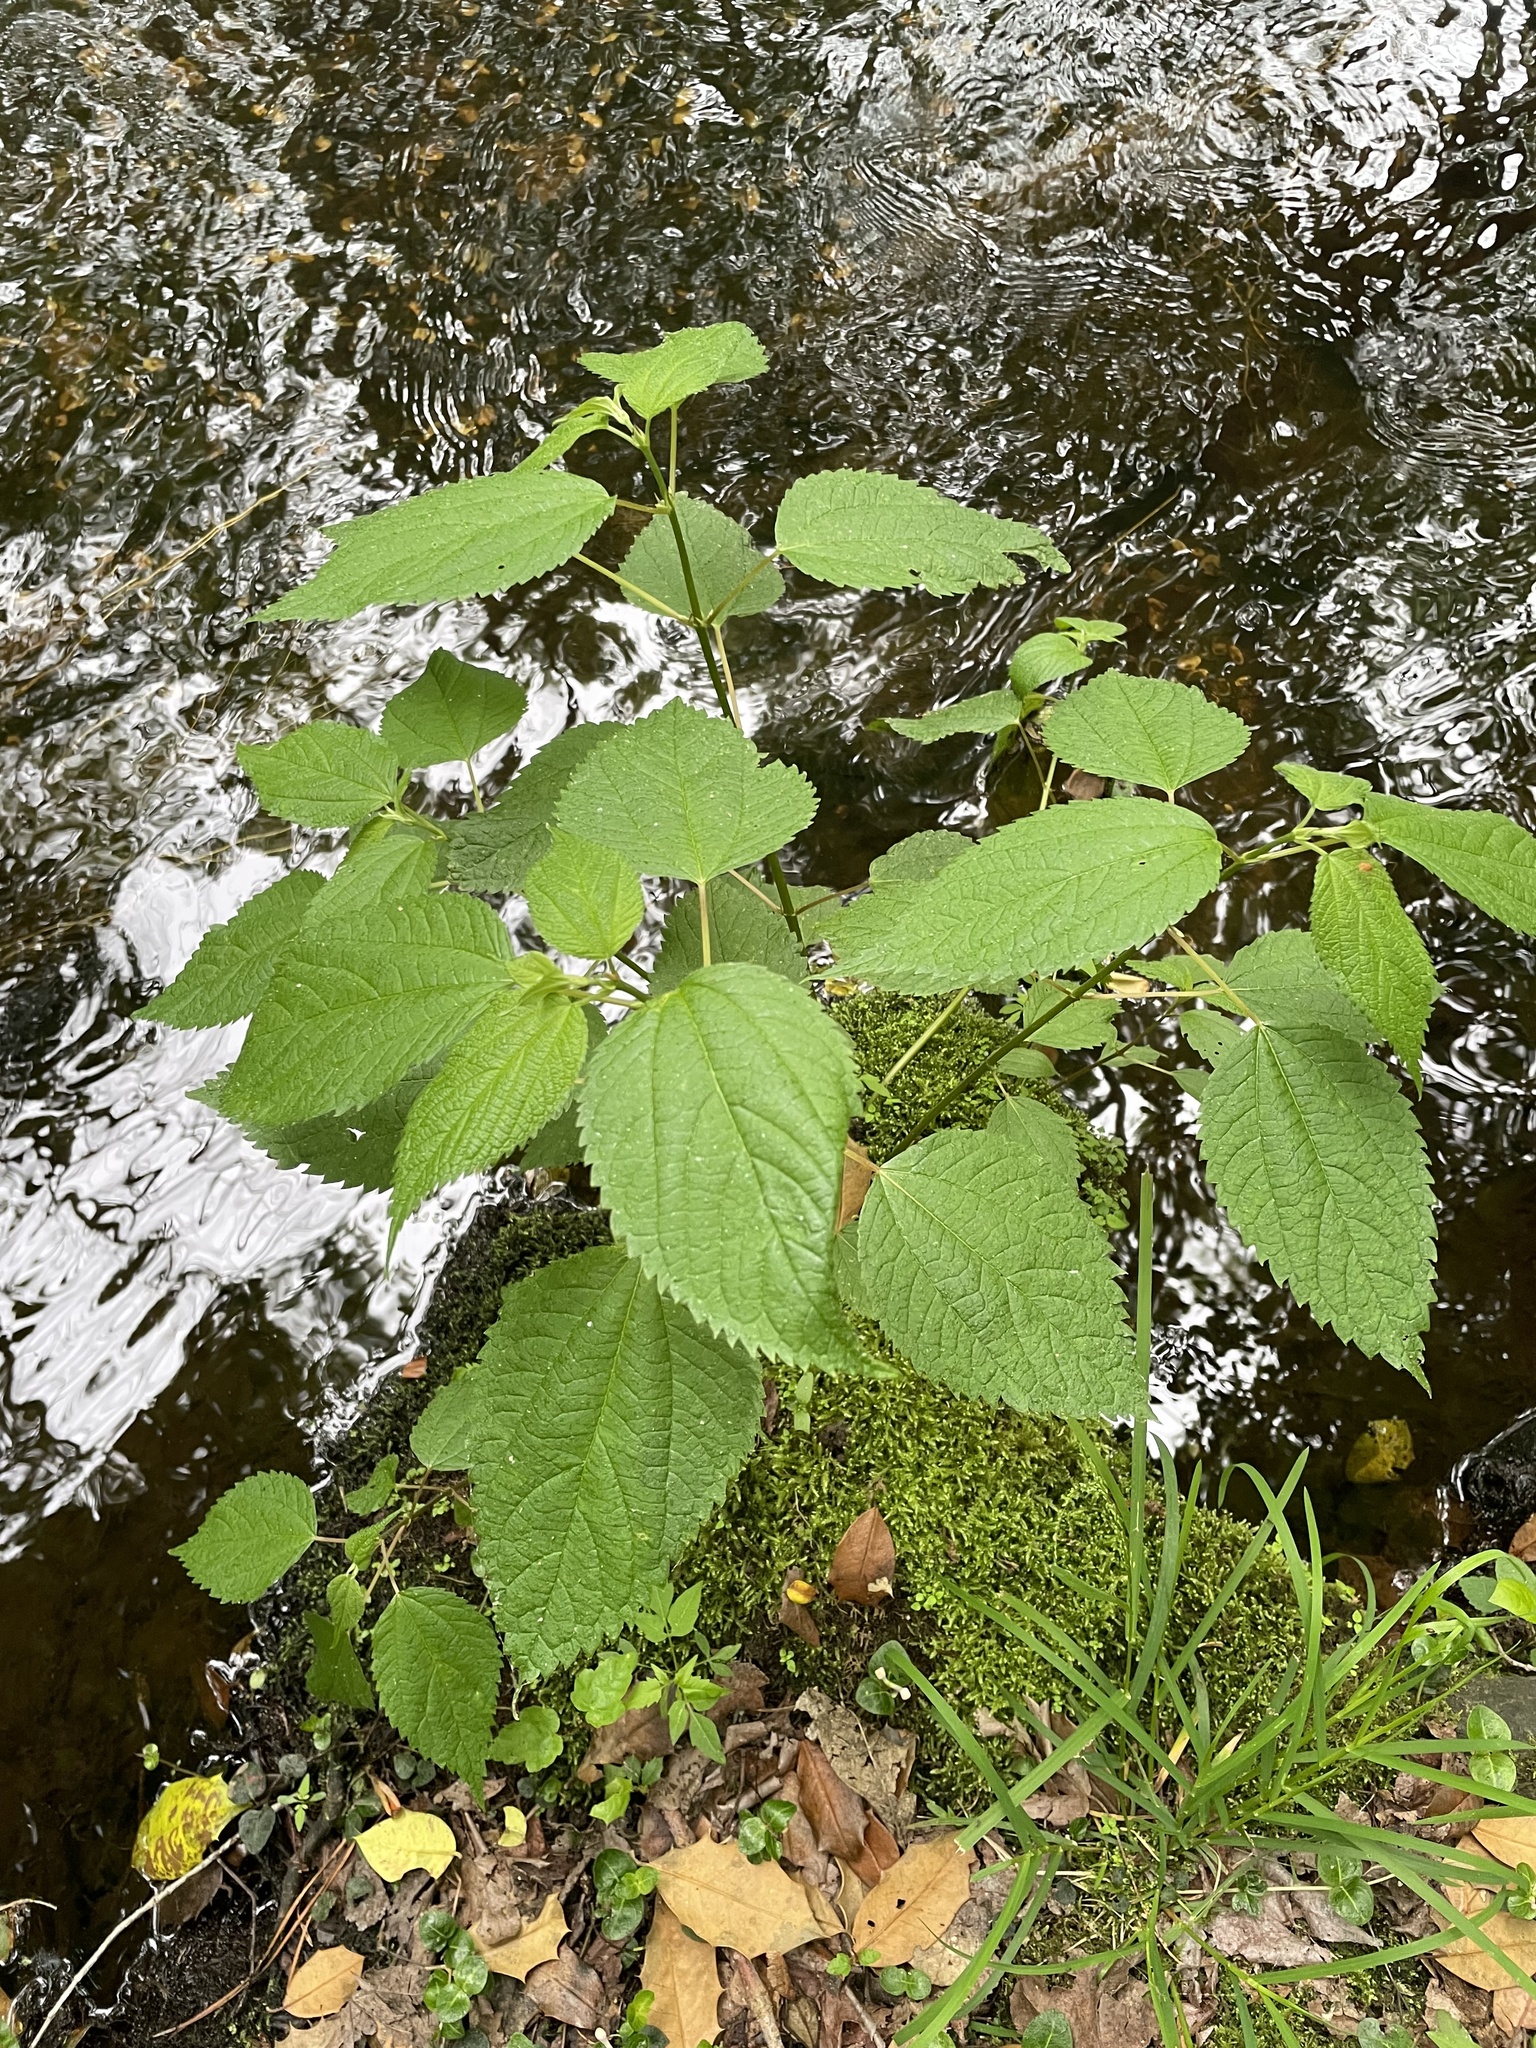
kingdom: Plantae
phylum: Tracheophyta
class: Magnoliopsida
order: Rosales
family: Urticaceae
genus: Boehmeria
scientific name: Boehmeria cylindrica
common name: Bog-hemp
